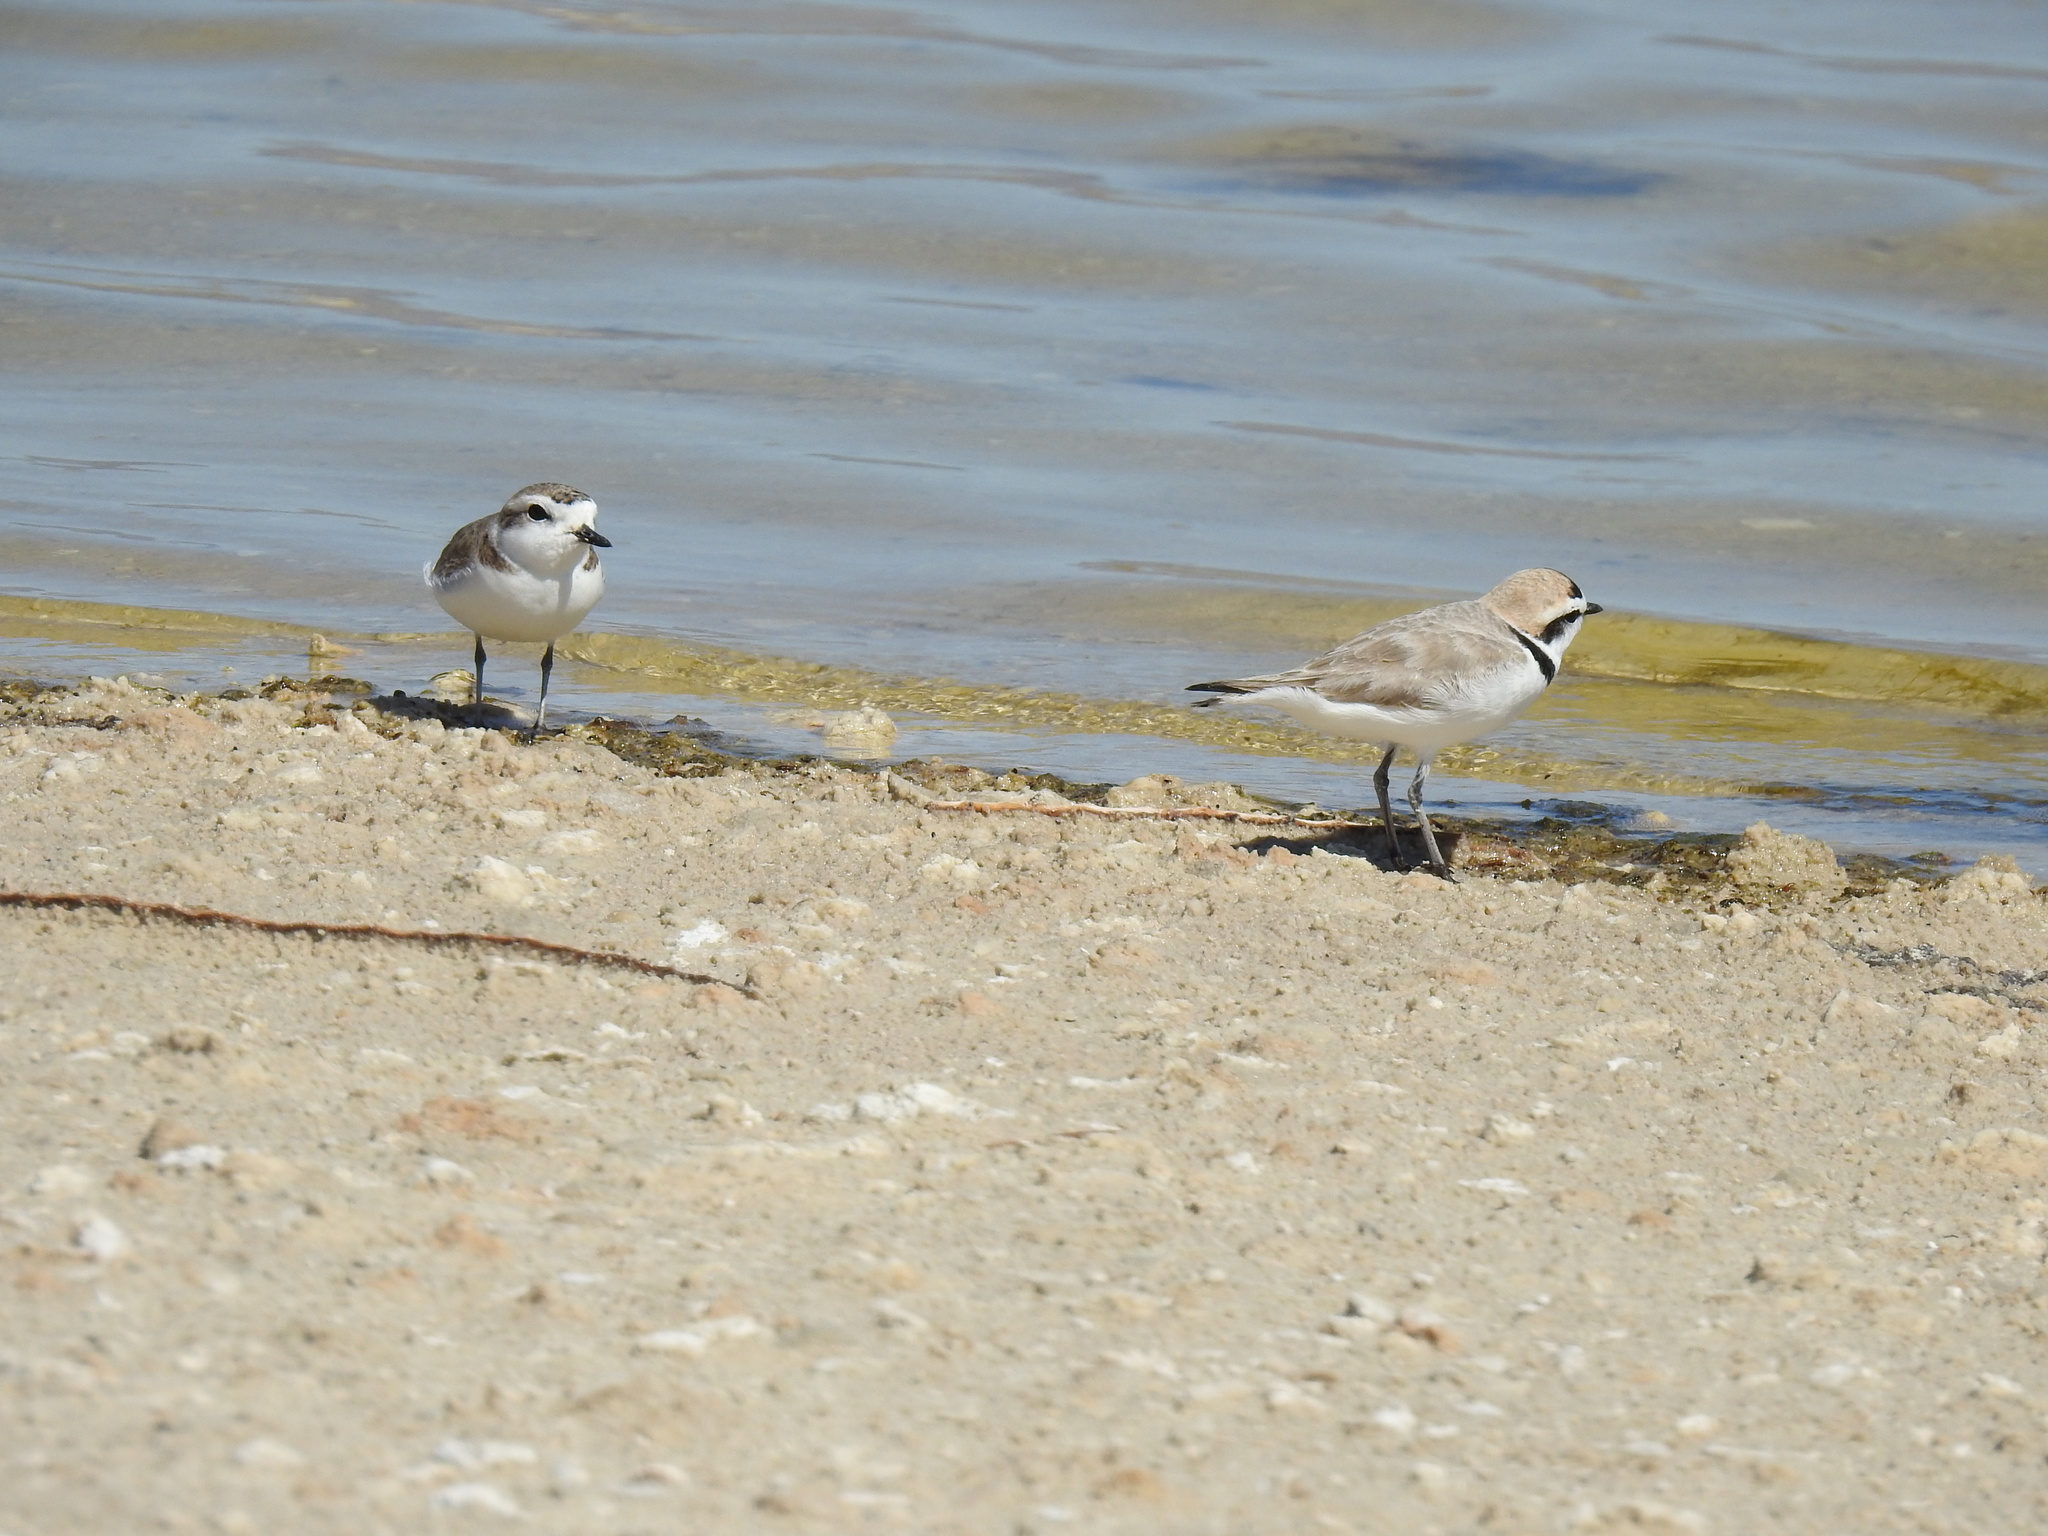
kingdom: Animalia
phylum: Chordata
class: Aves
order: Charadriiformes
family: Charadriidae
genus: Anarhynchus
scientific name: Anarhynchus
